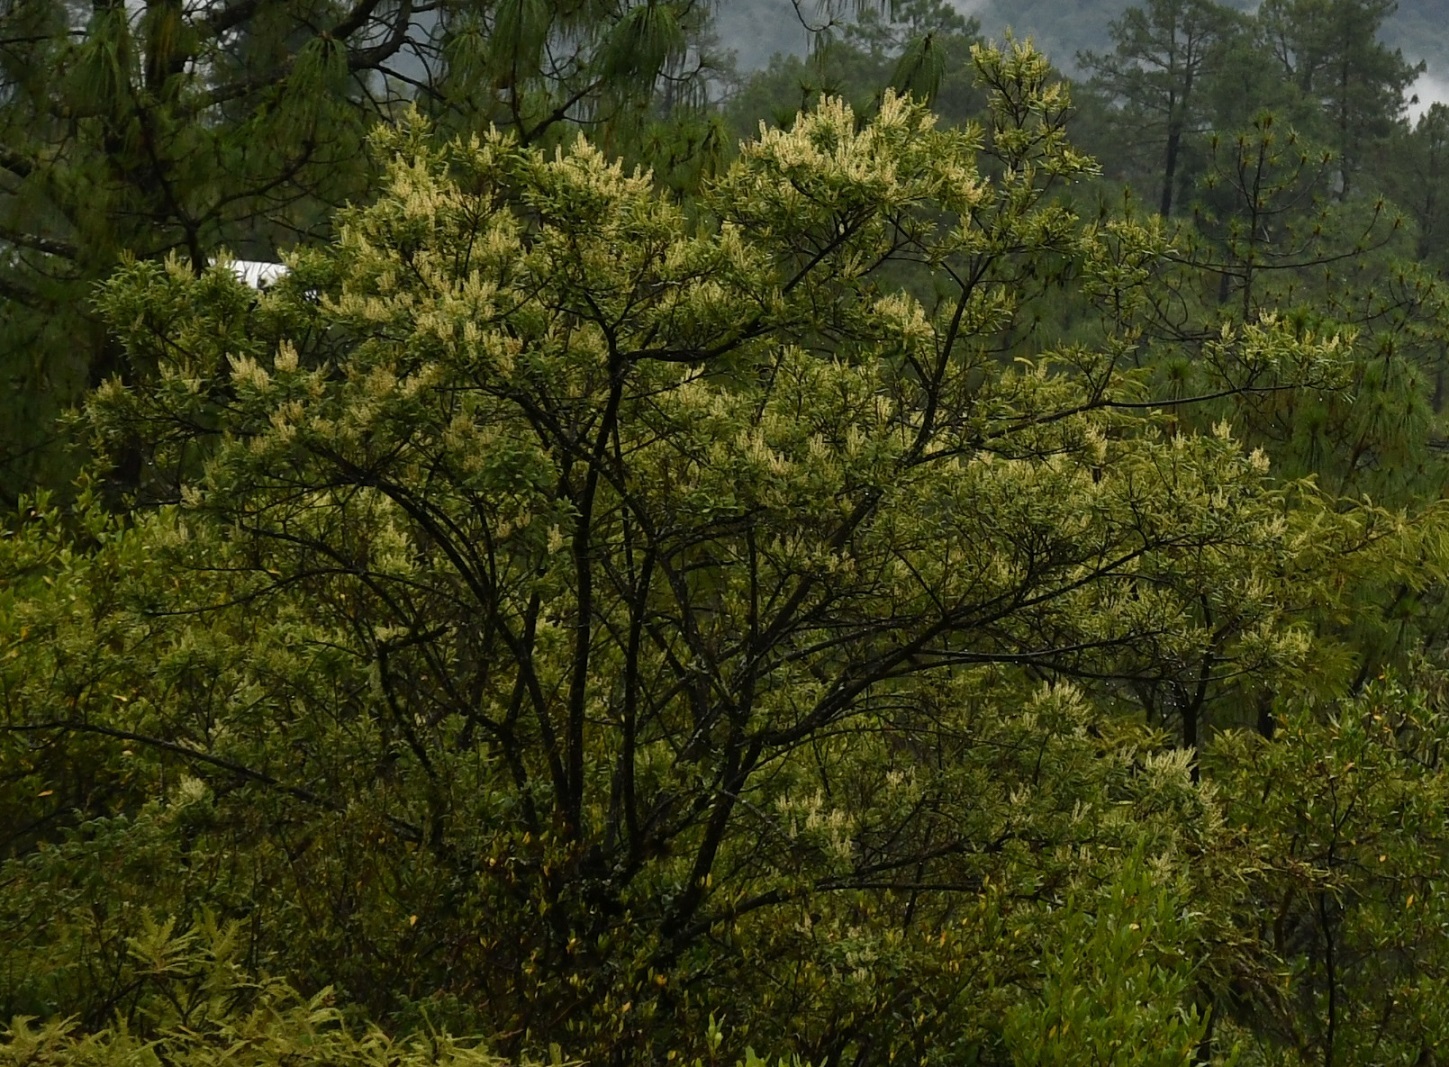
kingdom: Plantae
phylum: Tracheophyta
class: Magnoliopsida
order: Fabales
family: Fabaceae
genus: Eysenhardtia
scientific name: Eysenhardtia polystachya
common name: Kidneywood
